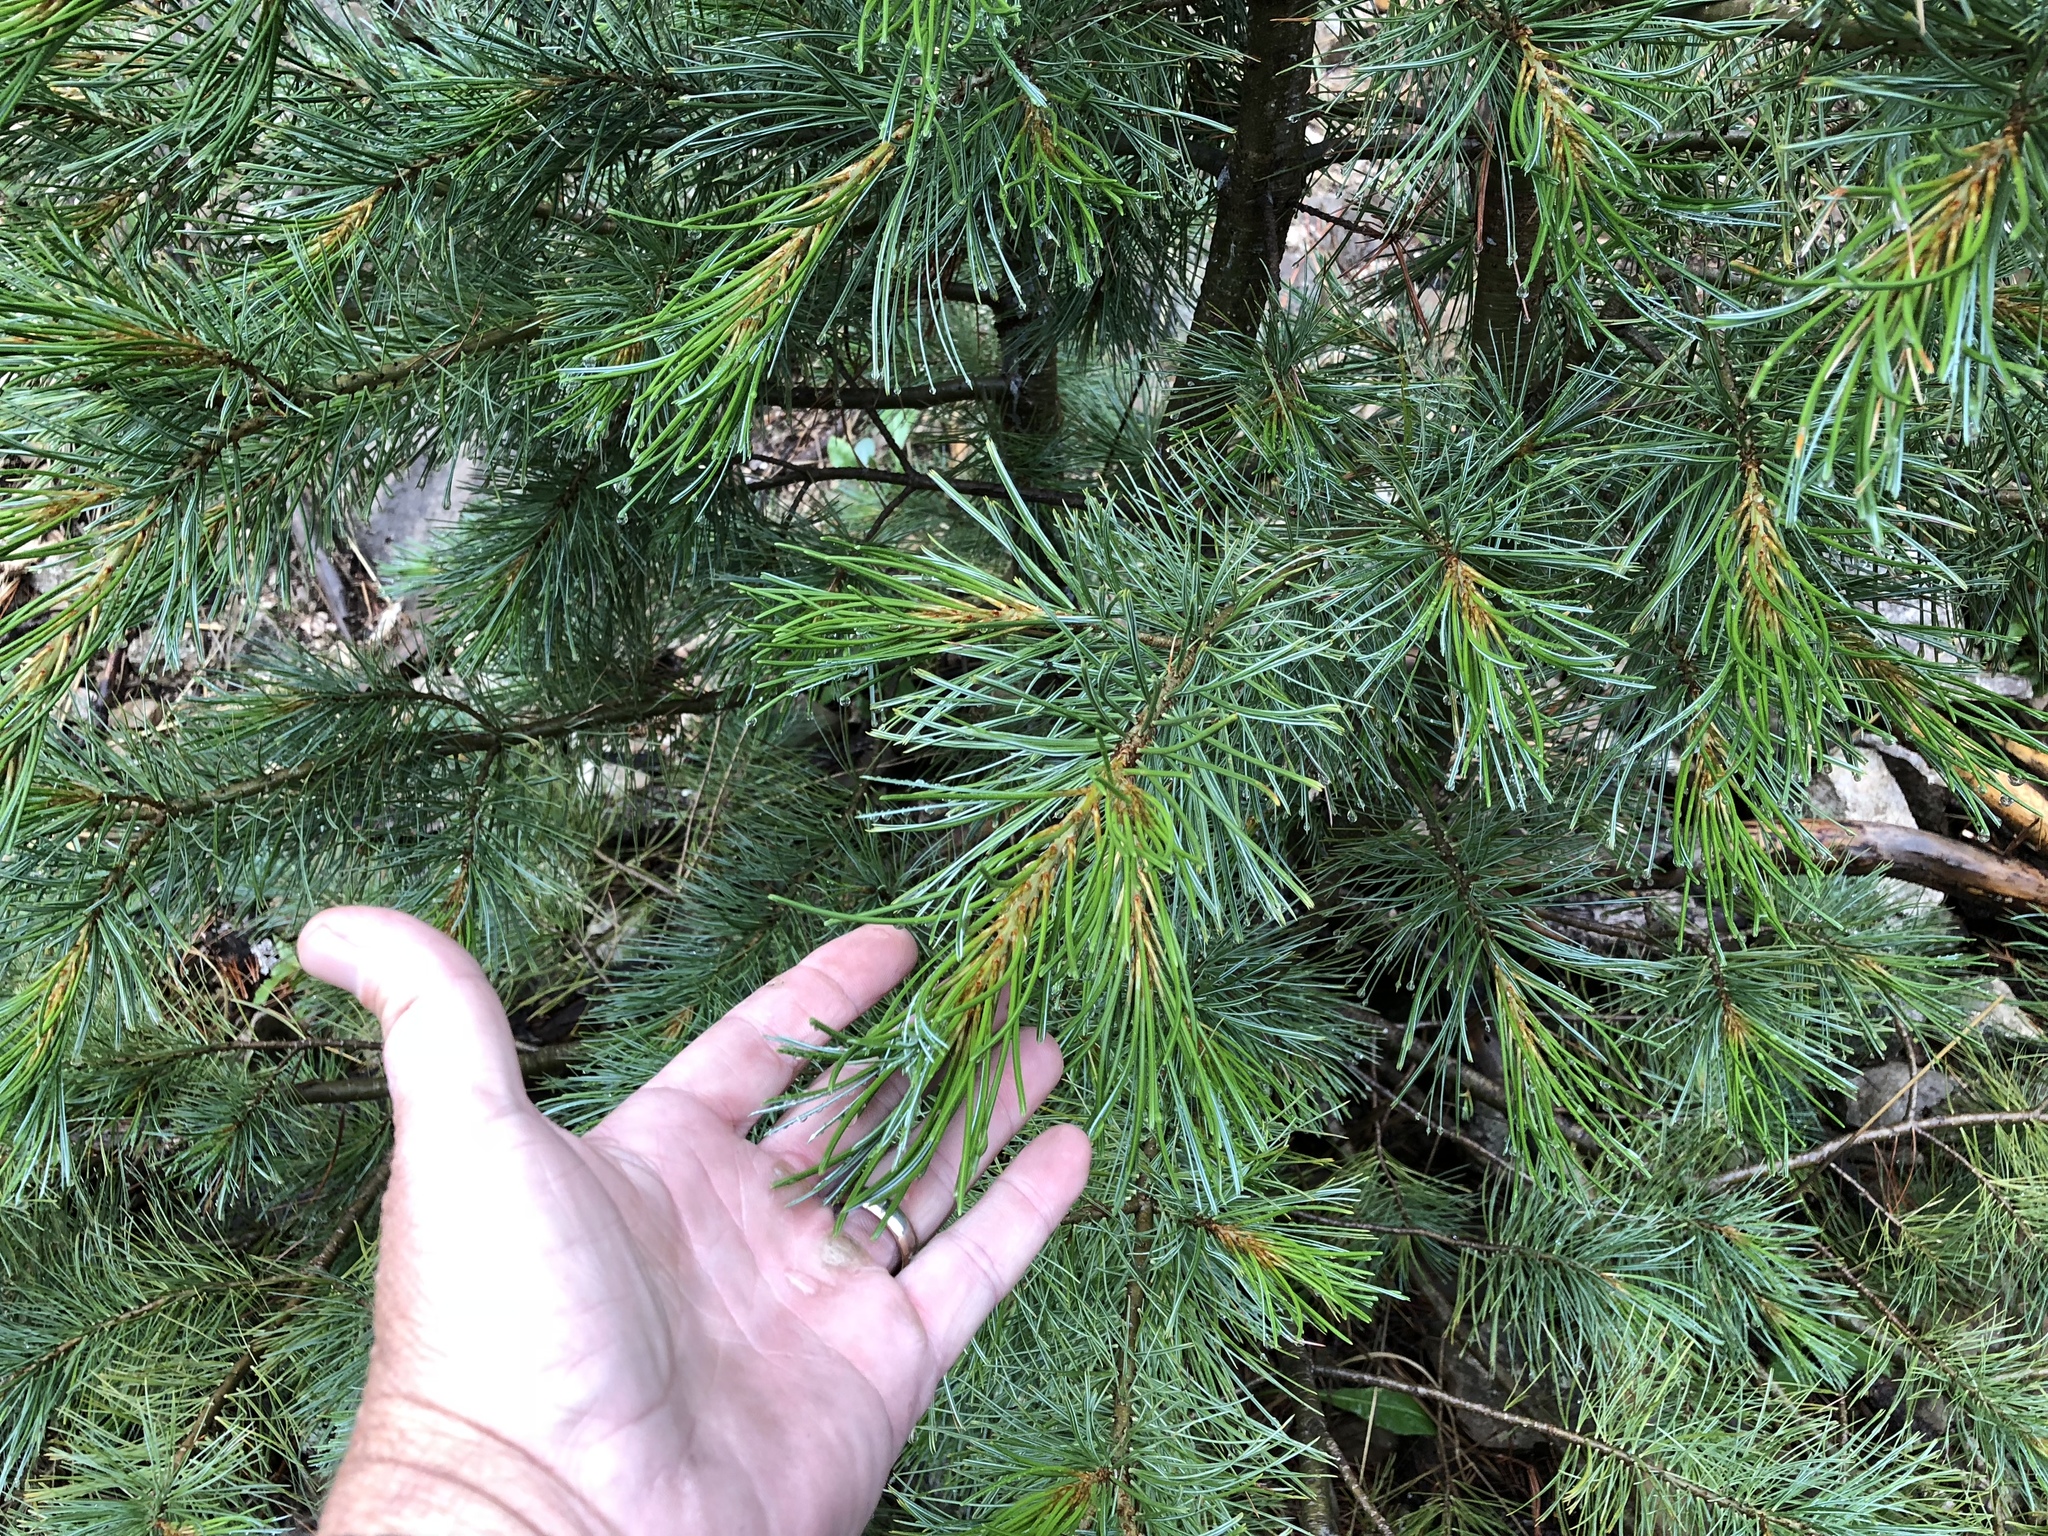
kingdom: Plantae
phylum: Tracheophyta
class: Pinopsida
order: Pinales
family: Pinaceae
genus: Pinus
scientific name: Pinus strobiformis
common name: Southwestern white pine
